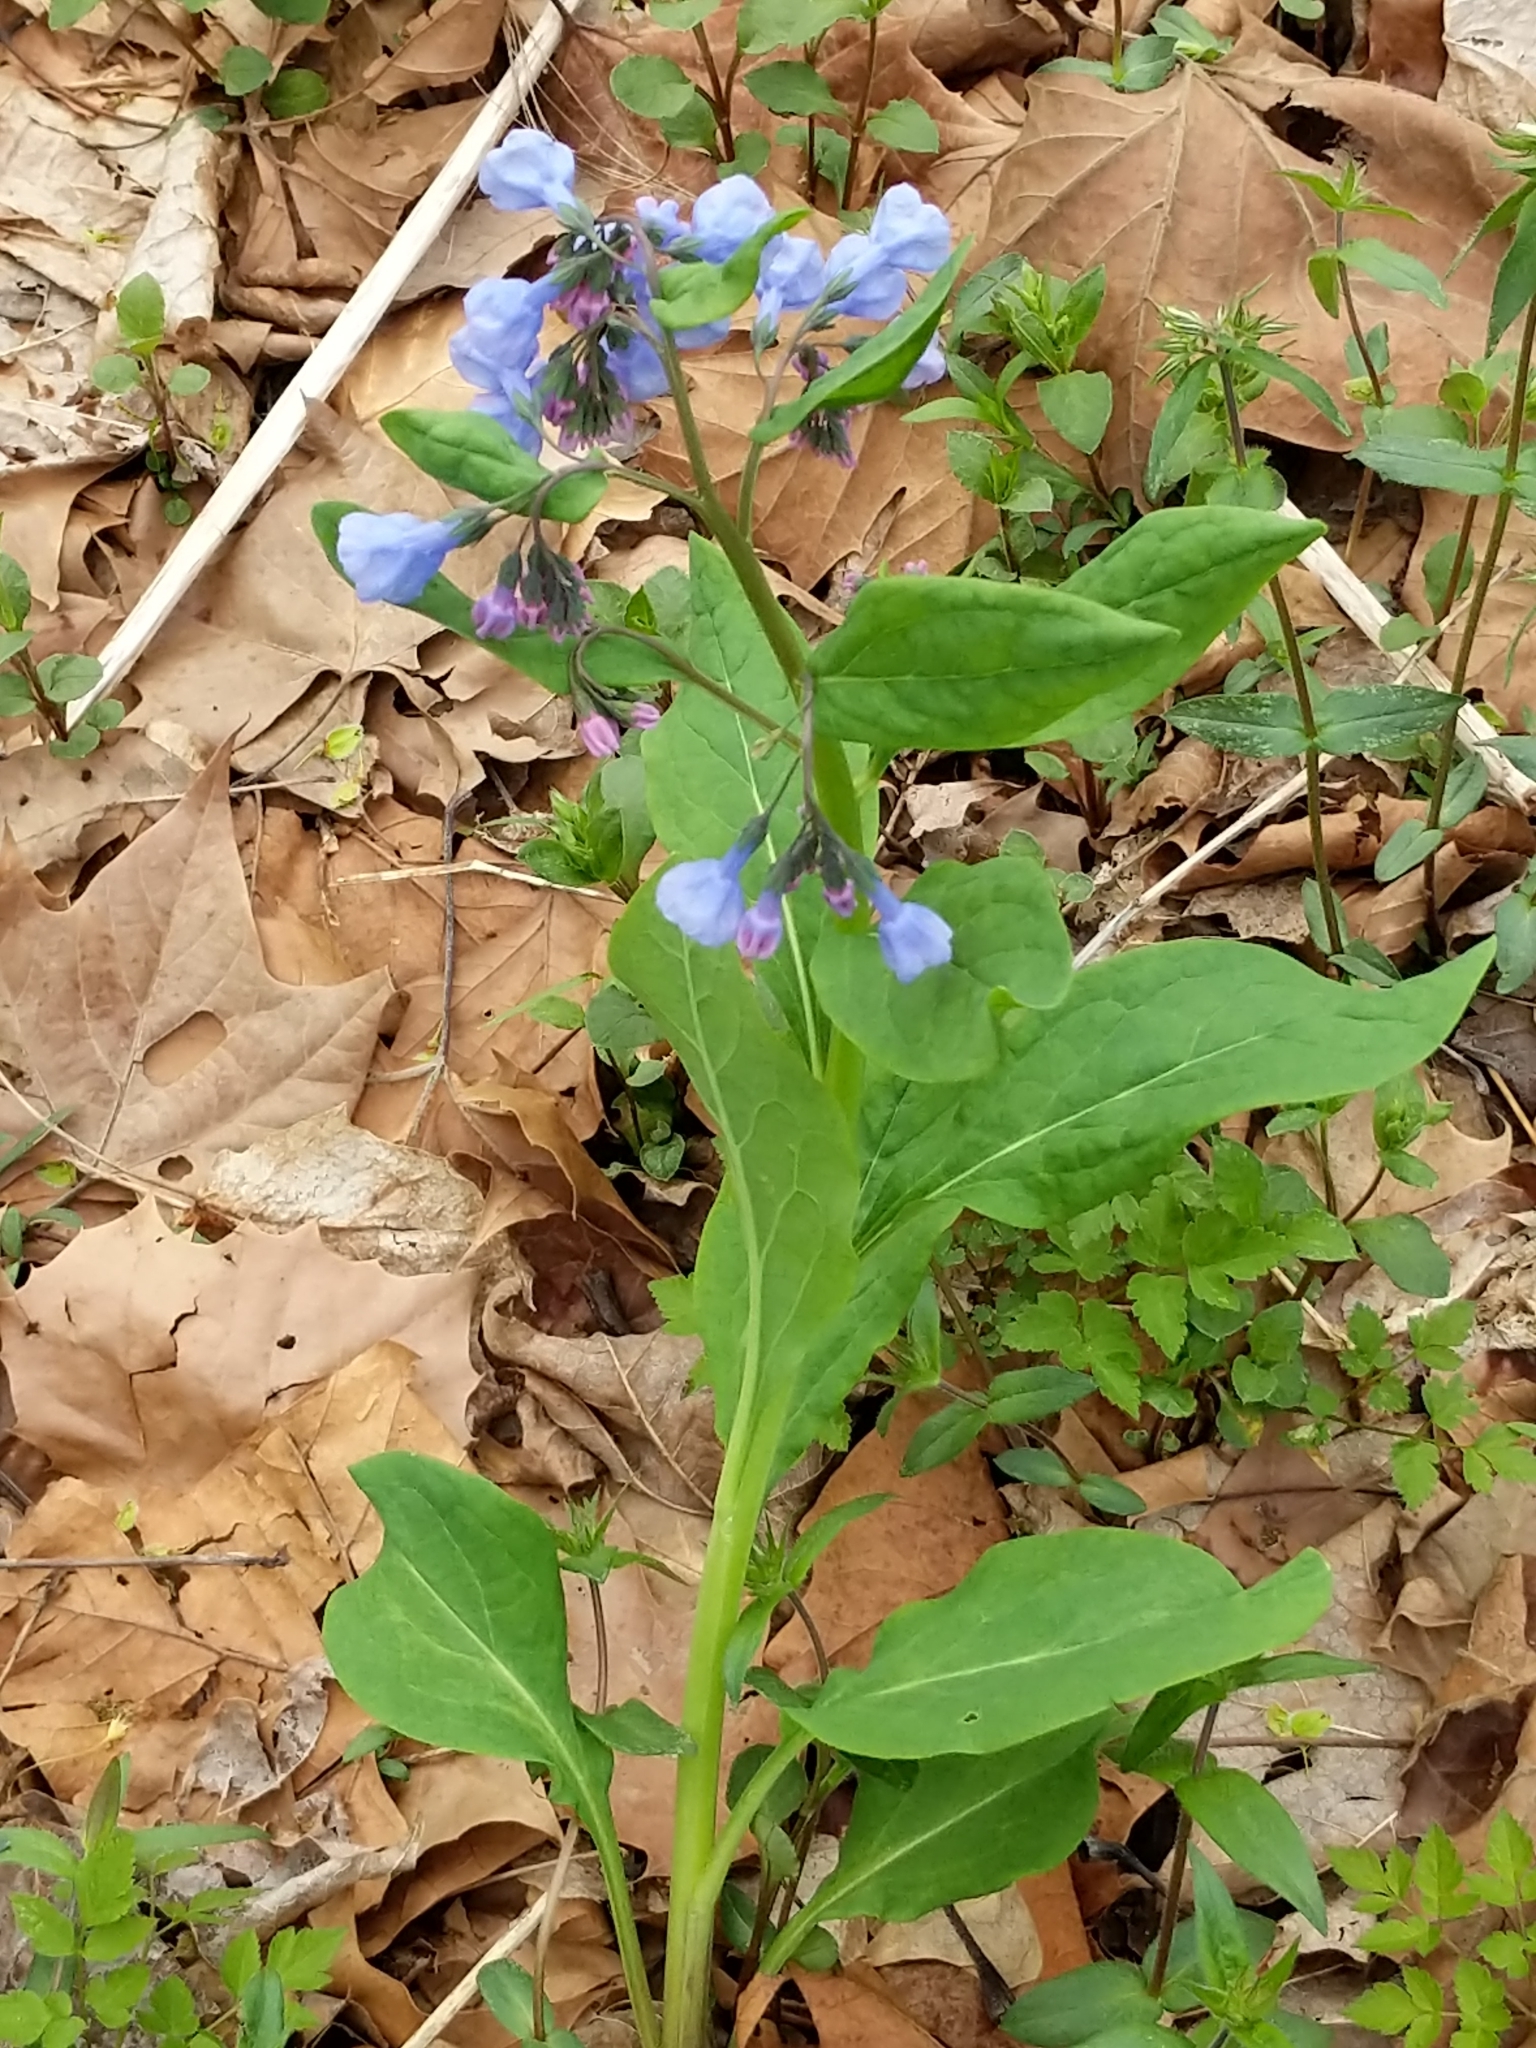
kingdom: Plantae
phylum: Tracheophyta
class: Magnoliopsida
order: Boraginales
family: Boraginaceae
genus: Mertensia
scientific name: Mertensia virginica
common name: Virginia bluebells
